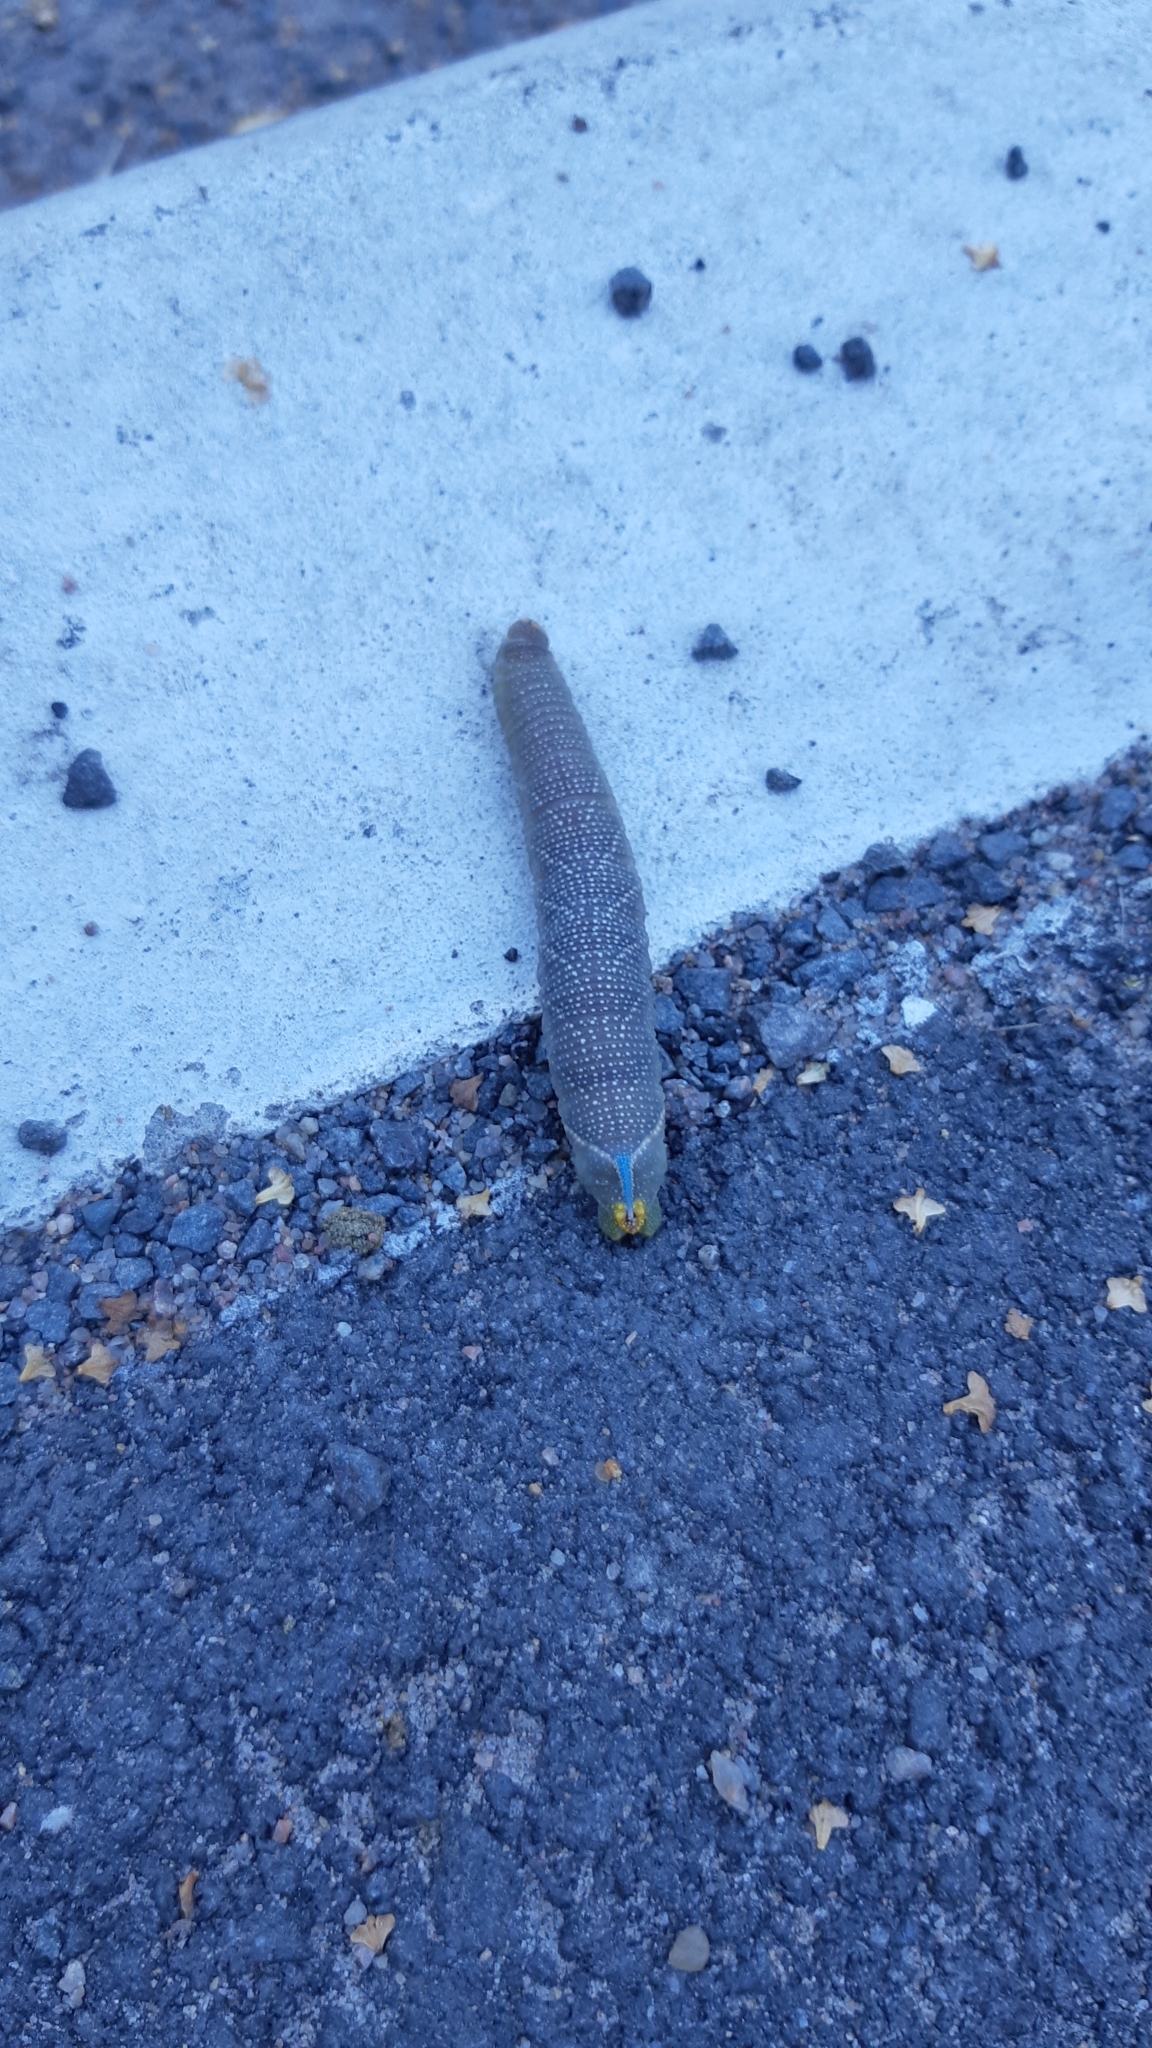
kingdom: Animalia
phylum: Arthropoda
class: Insecta
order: Lepidoptera
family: Sphingidae
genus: Mimas
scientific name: Mimas tiliae
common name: Lime hawk-moth
